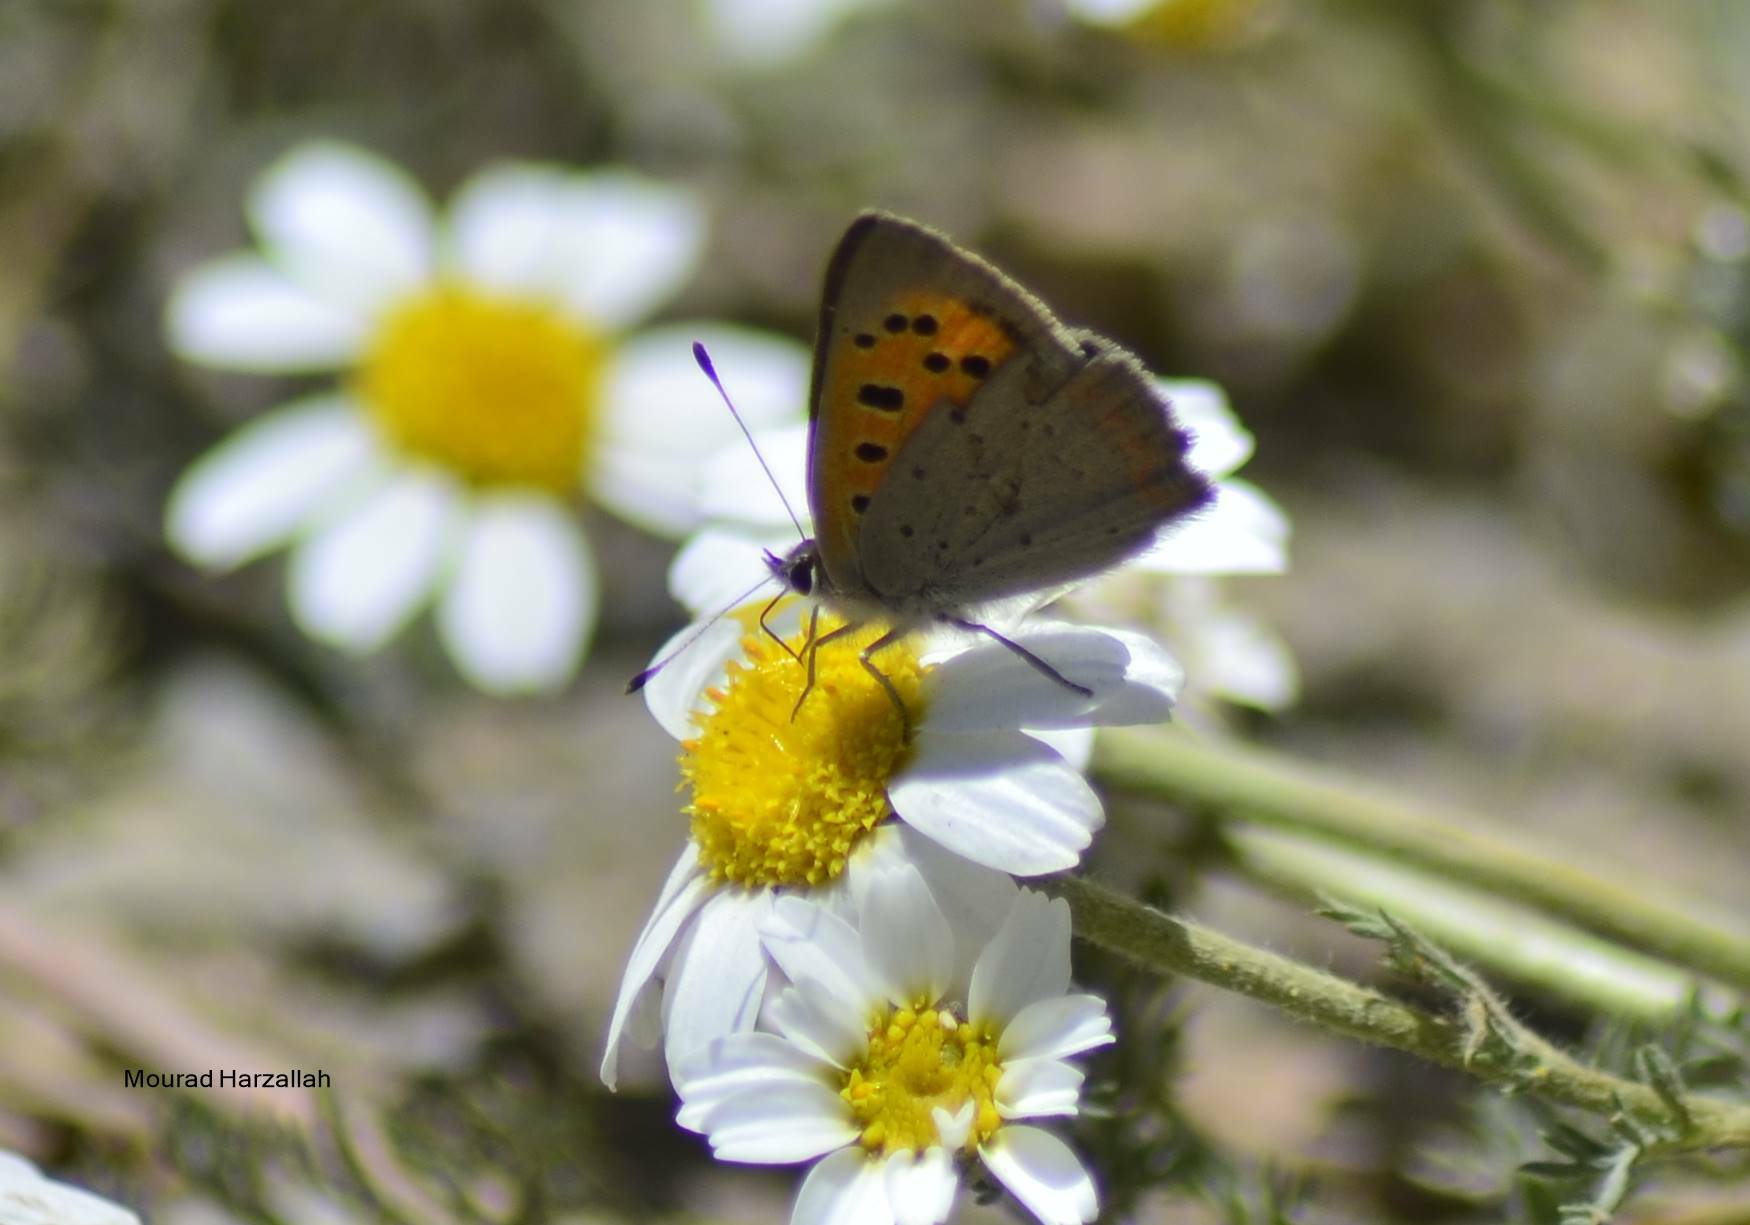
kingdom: Animalia
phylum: Arthropoda
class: Insecta
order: Lepidoptera
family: Lycaenidae
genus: Lycaena
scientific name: Lycaena phlaeas
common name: Small copper
